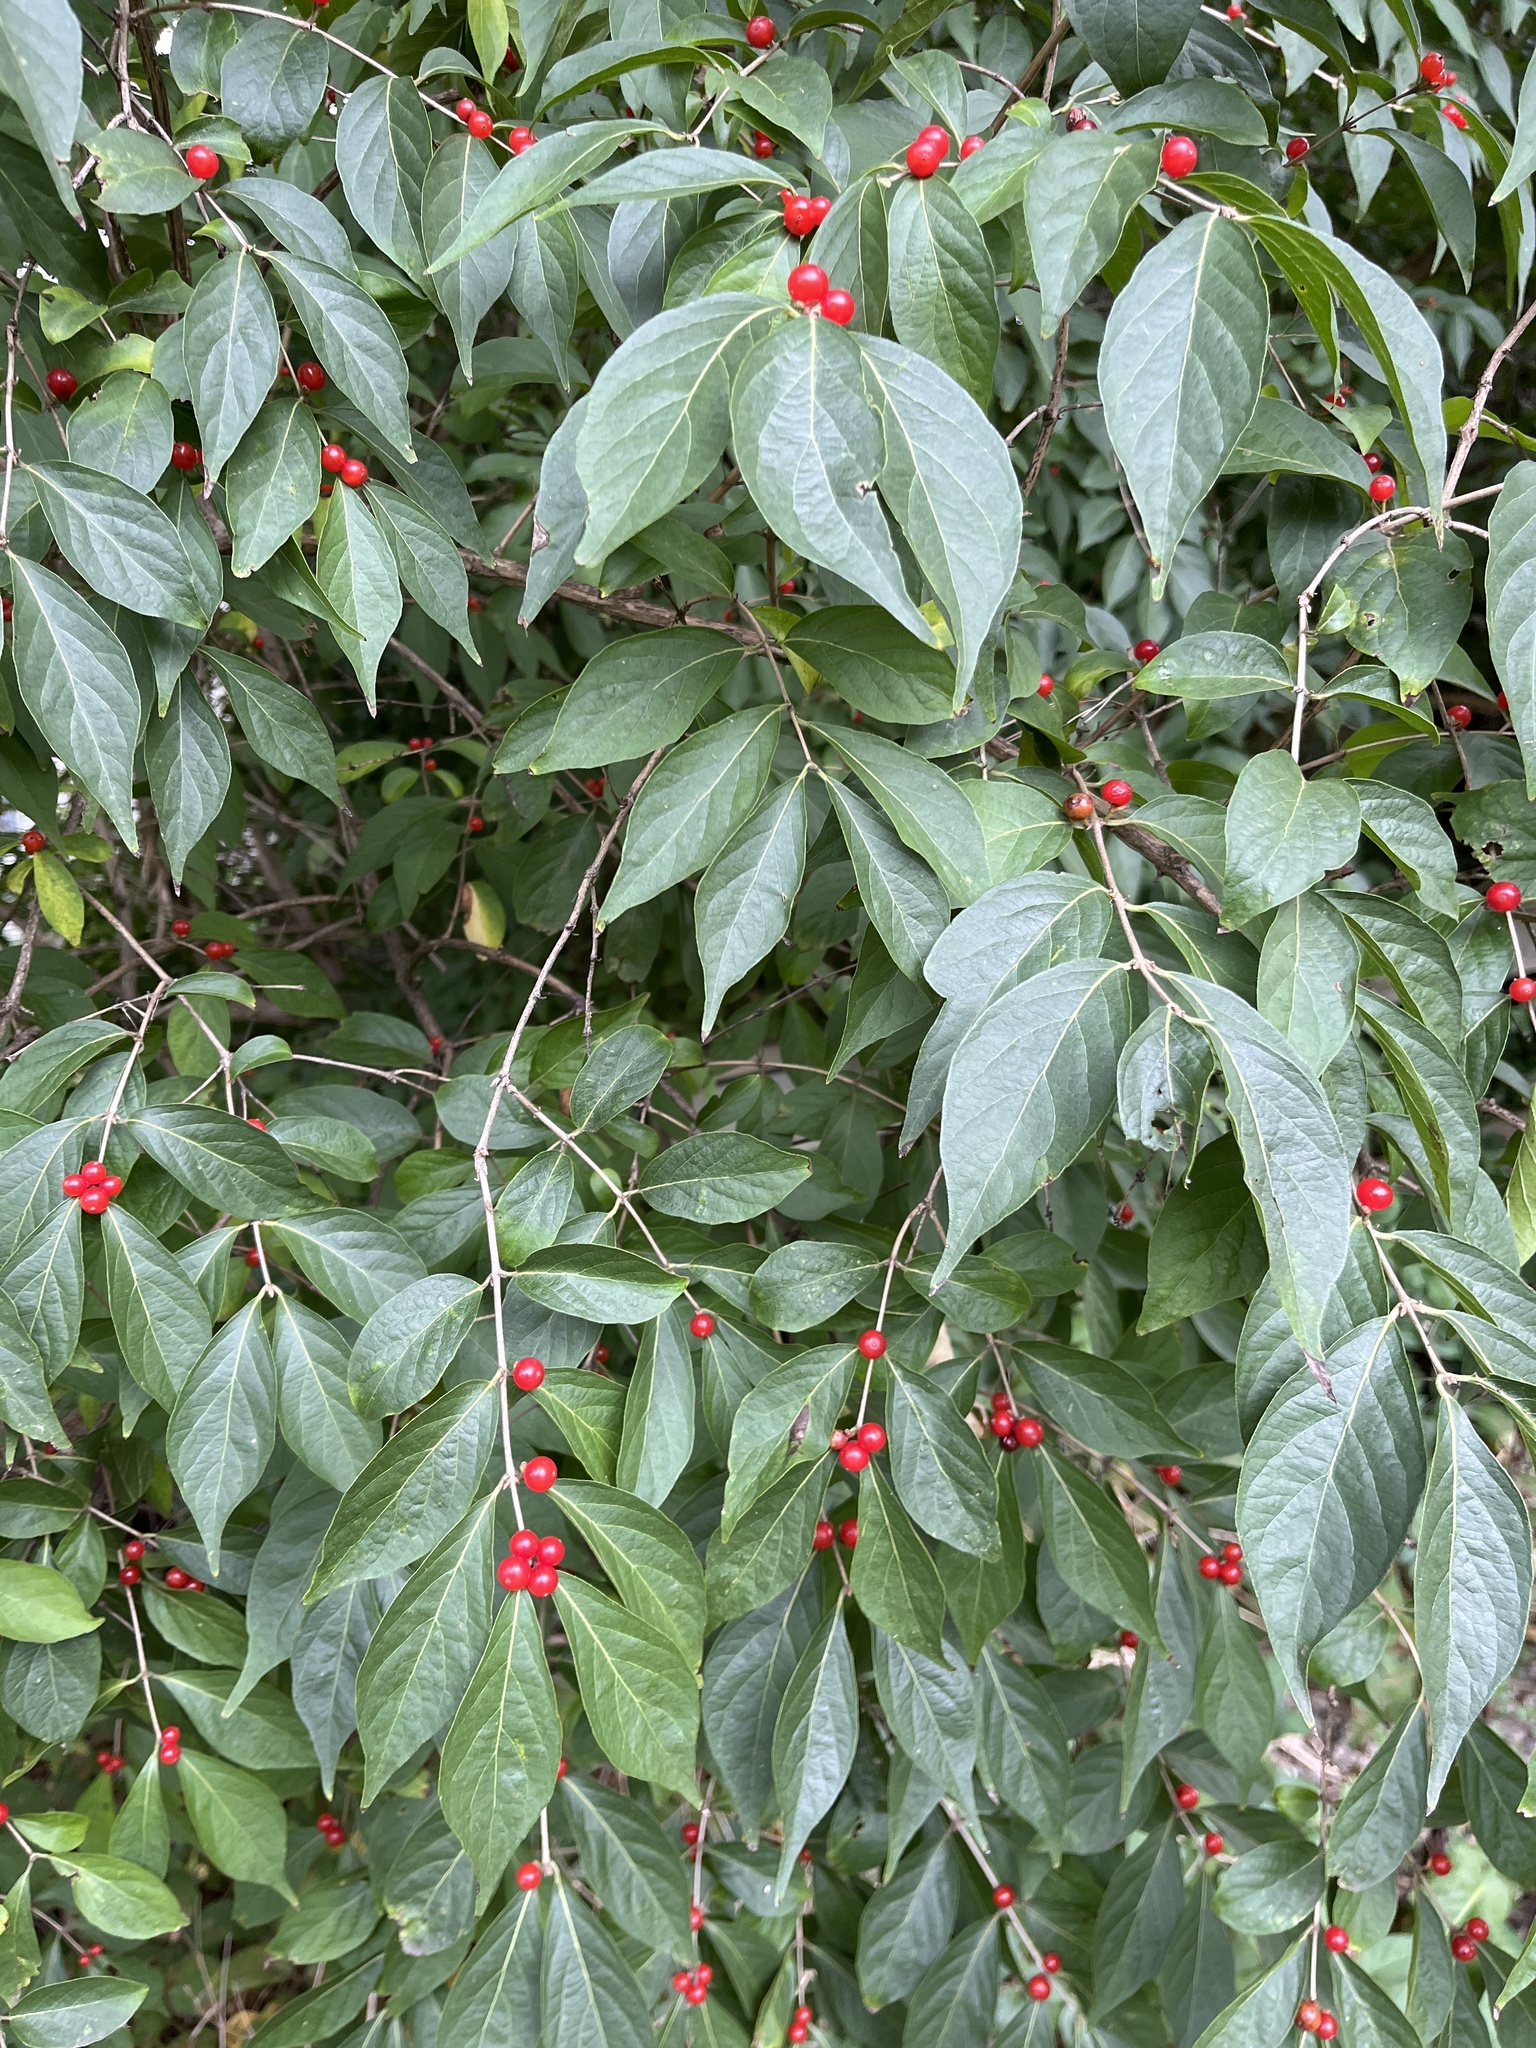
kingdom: Plantae
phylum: Tracheophyta
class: Magnoliopsida
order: Dipsacales
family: Caprifoliaceae
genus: Lonicera
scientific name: Lonicera maackii
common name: Amur honeysuckle
